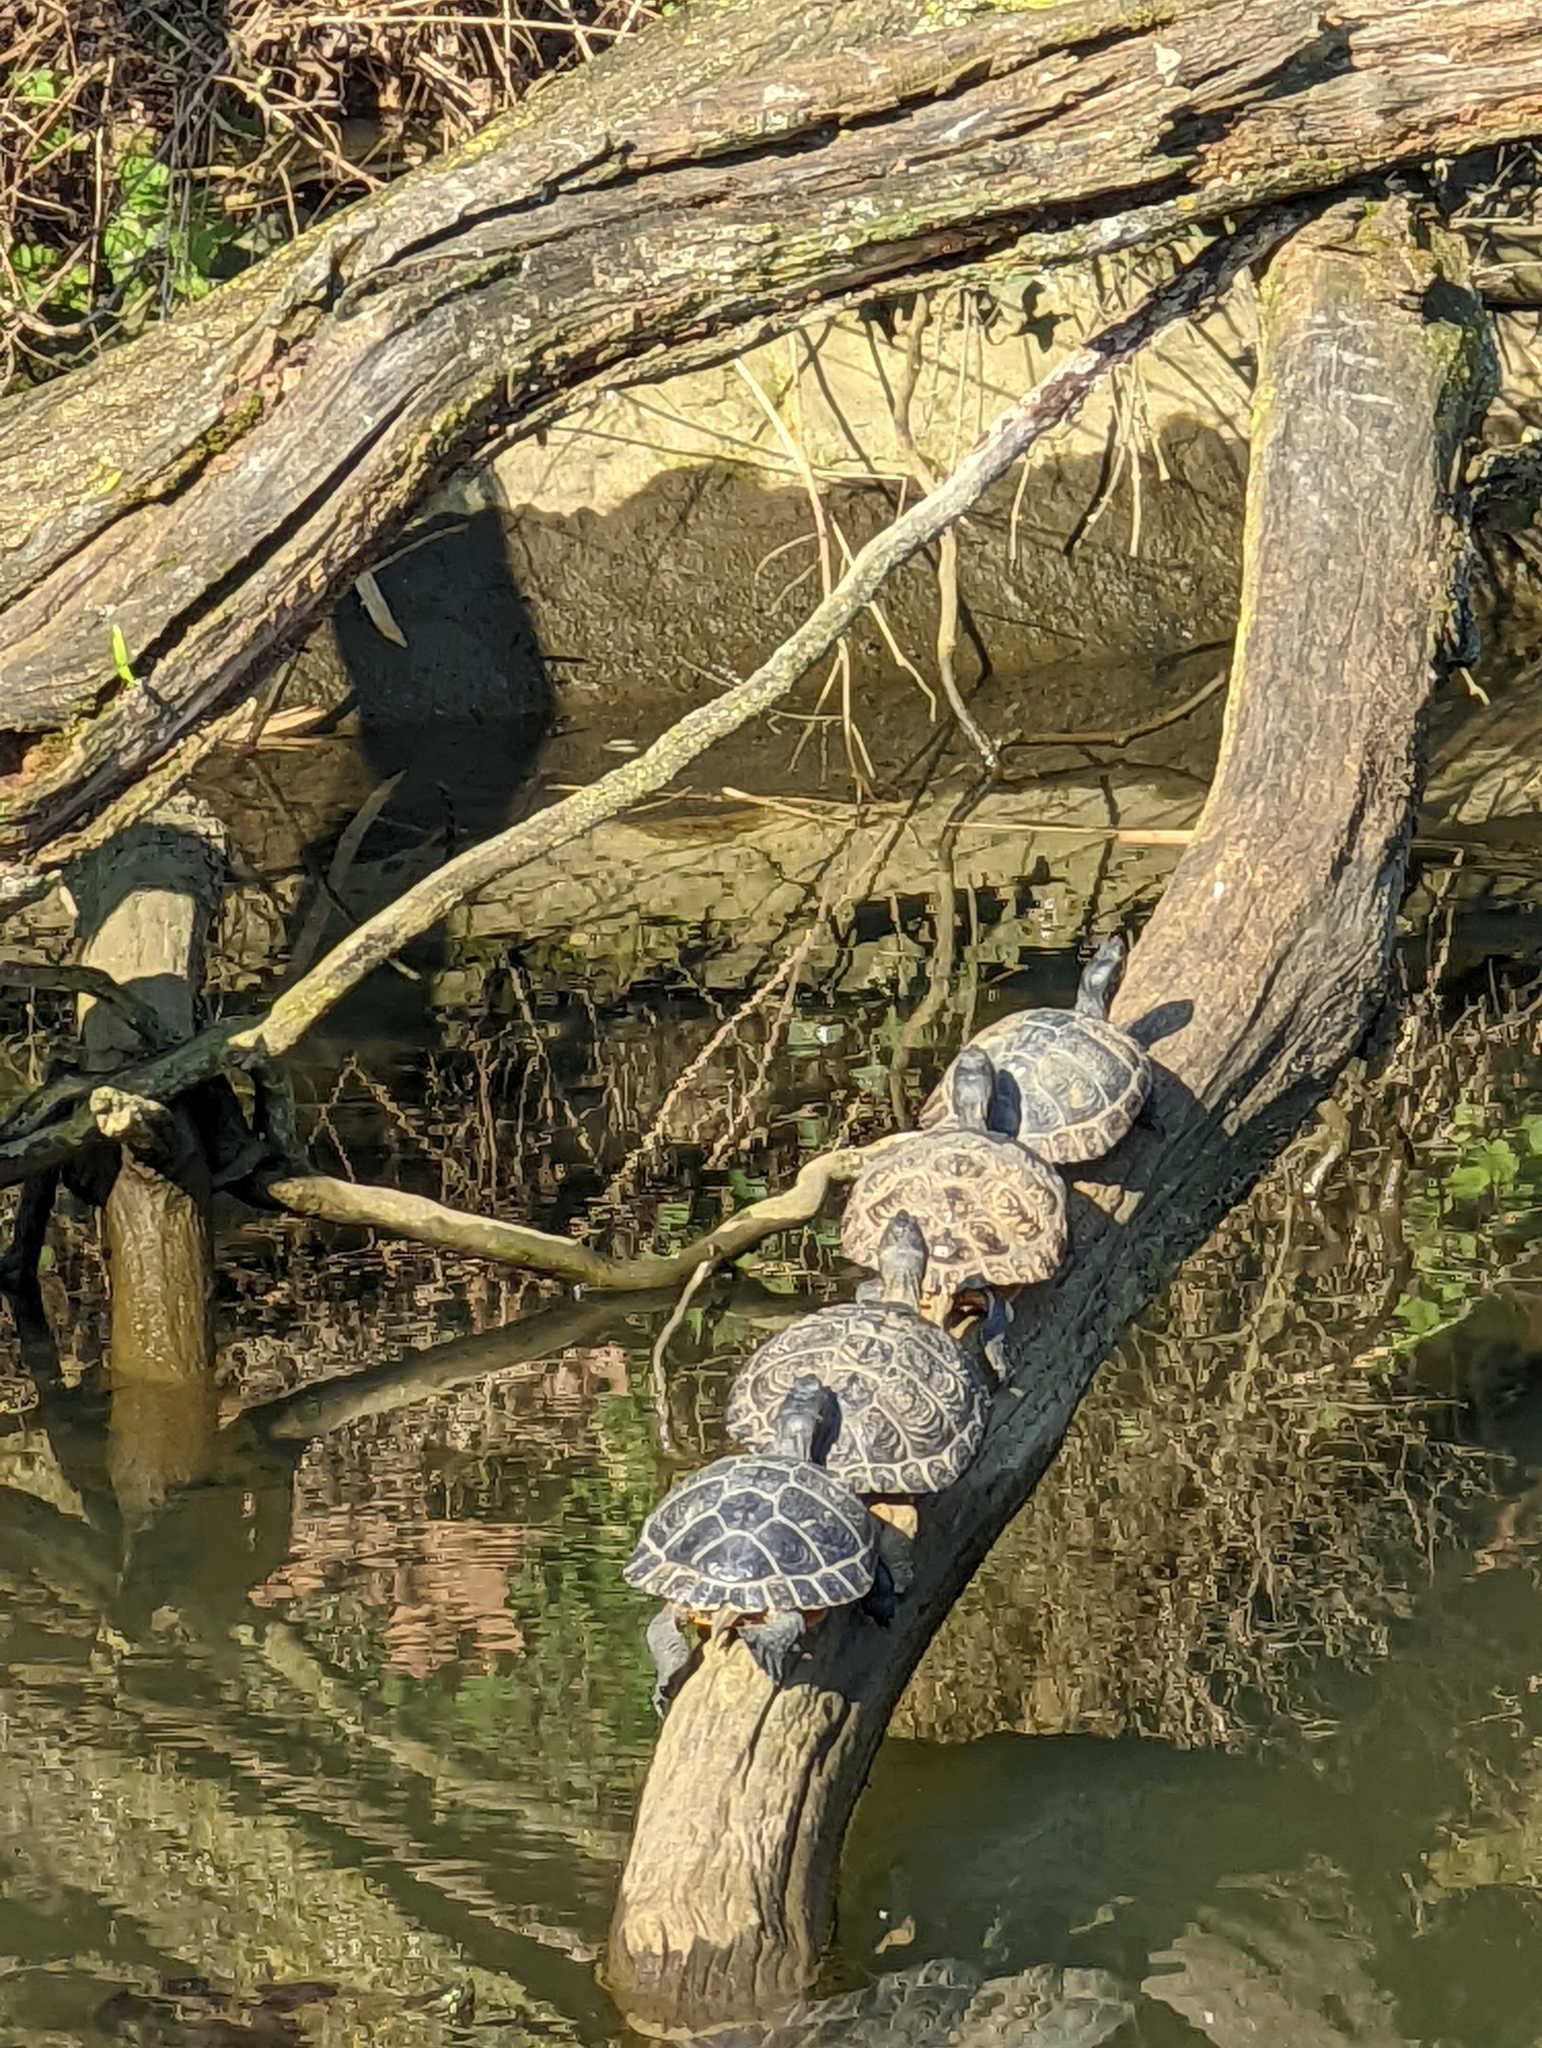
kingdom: Animalia
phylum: Chordata
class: Testudines
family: Emydidae
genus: Trachemys
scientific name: Trachemys scripta
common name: Slider
